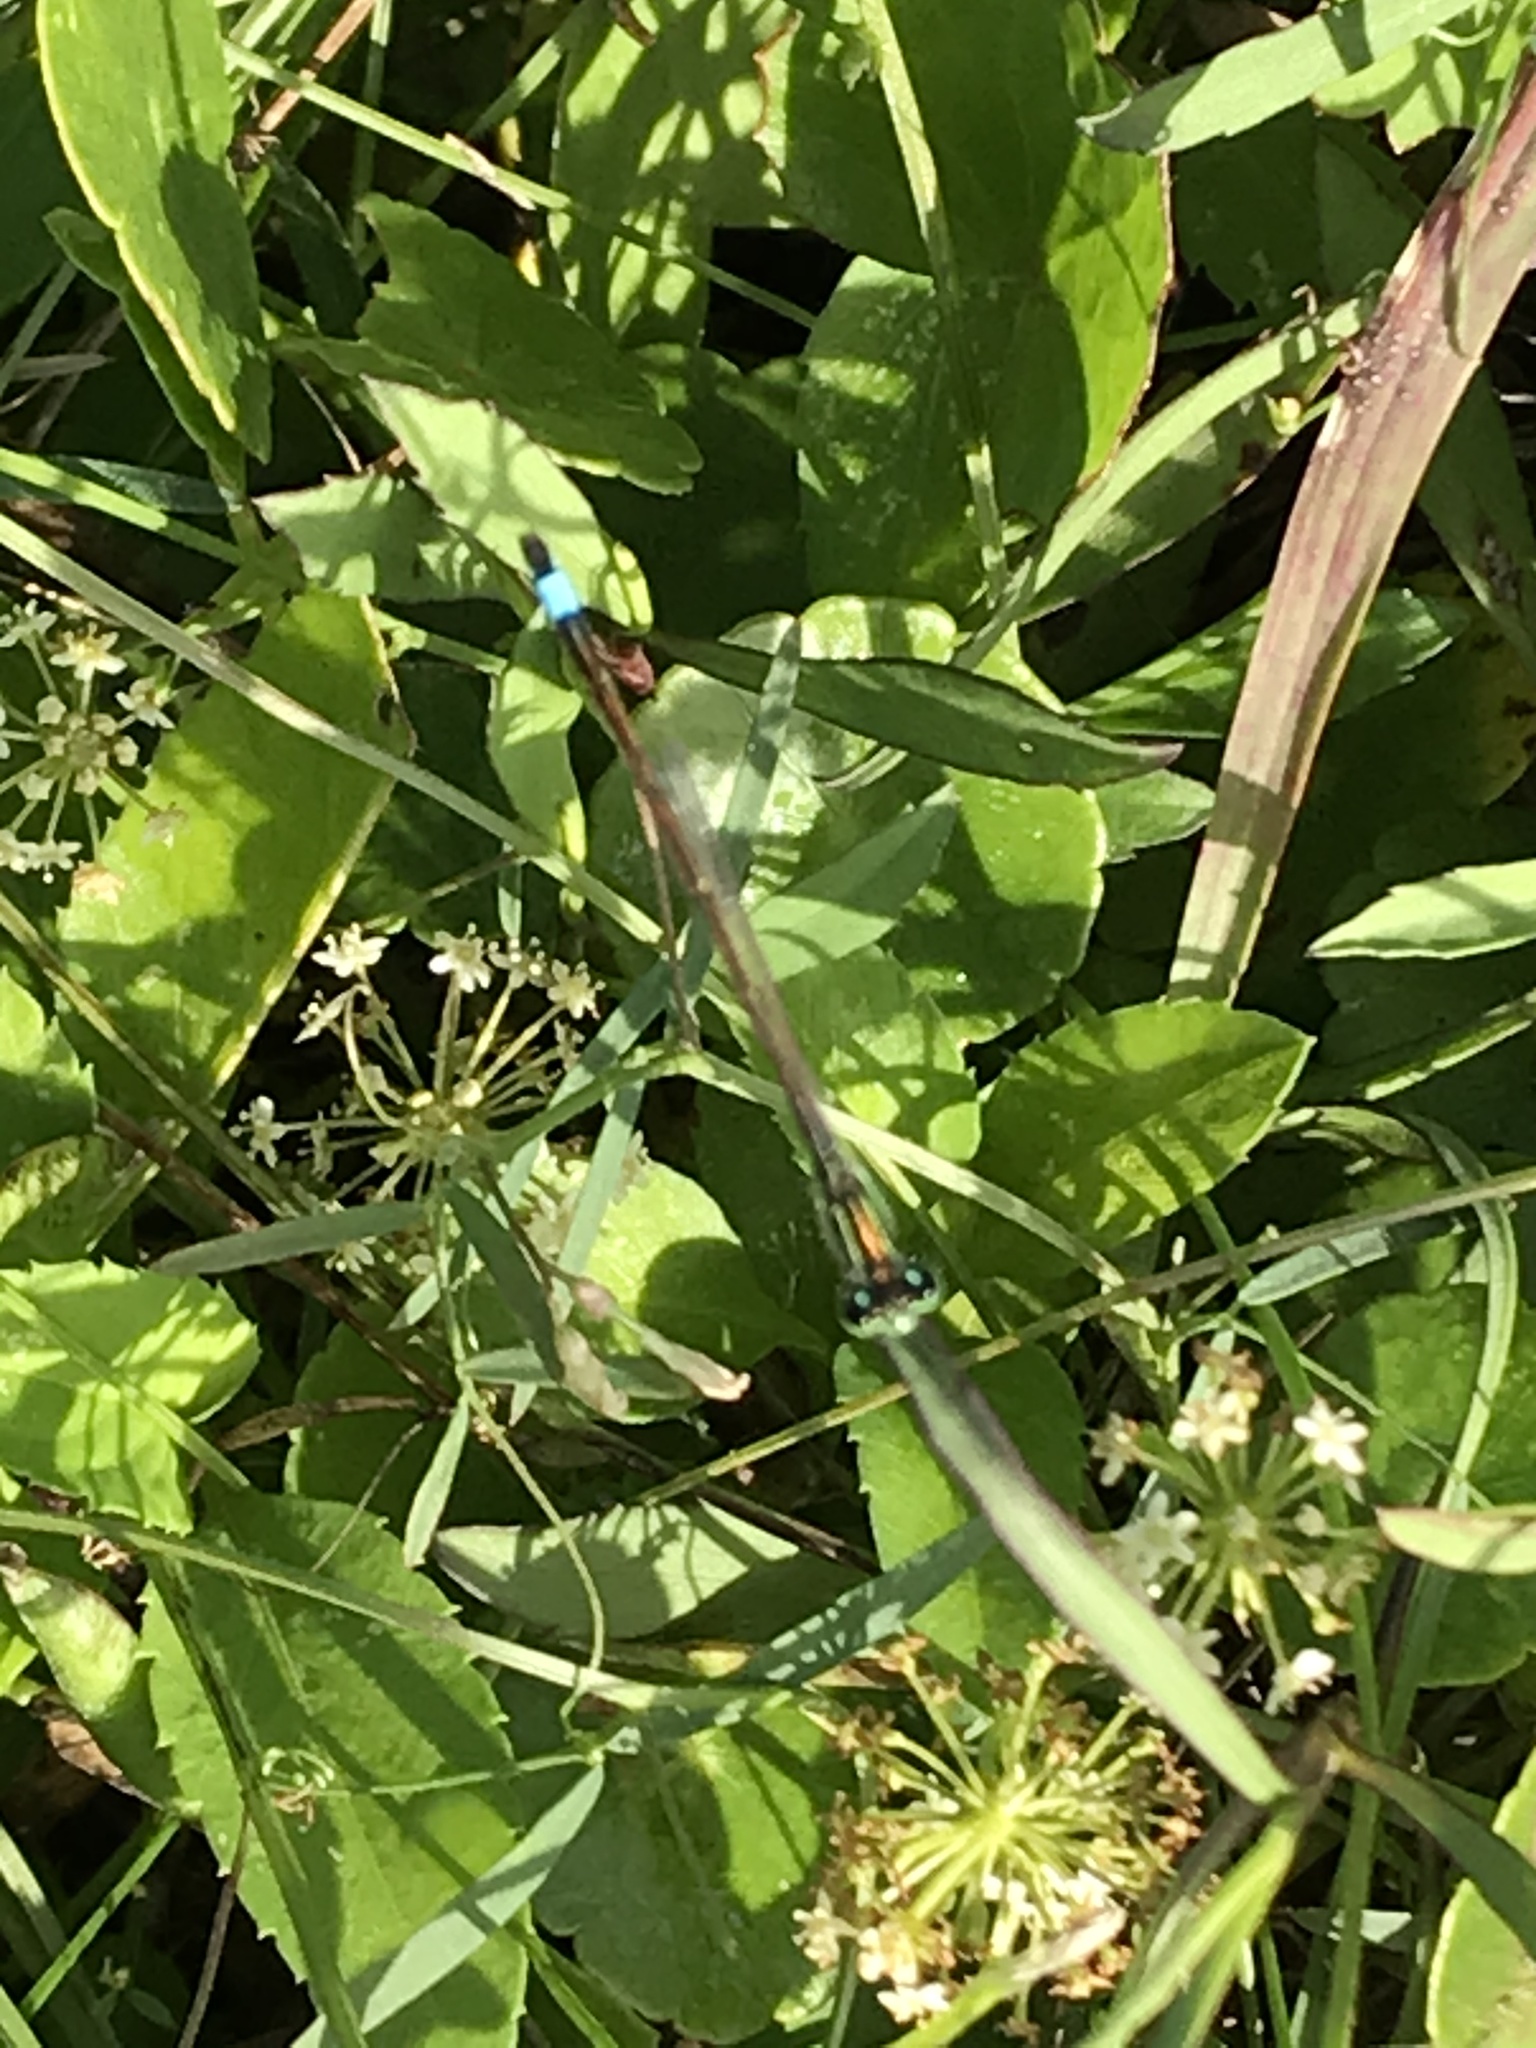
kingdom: Animalia
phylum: Arthropoda
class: Insecta
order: Odonata
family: Coenagrionidae
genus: Ischnura
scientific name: Ischnura ramburii
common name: Rambur's forktail
